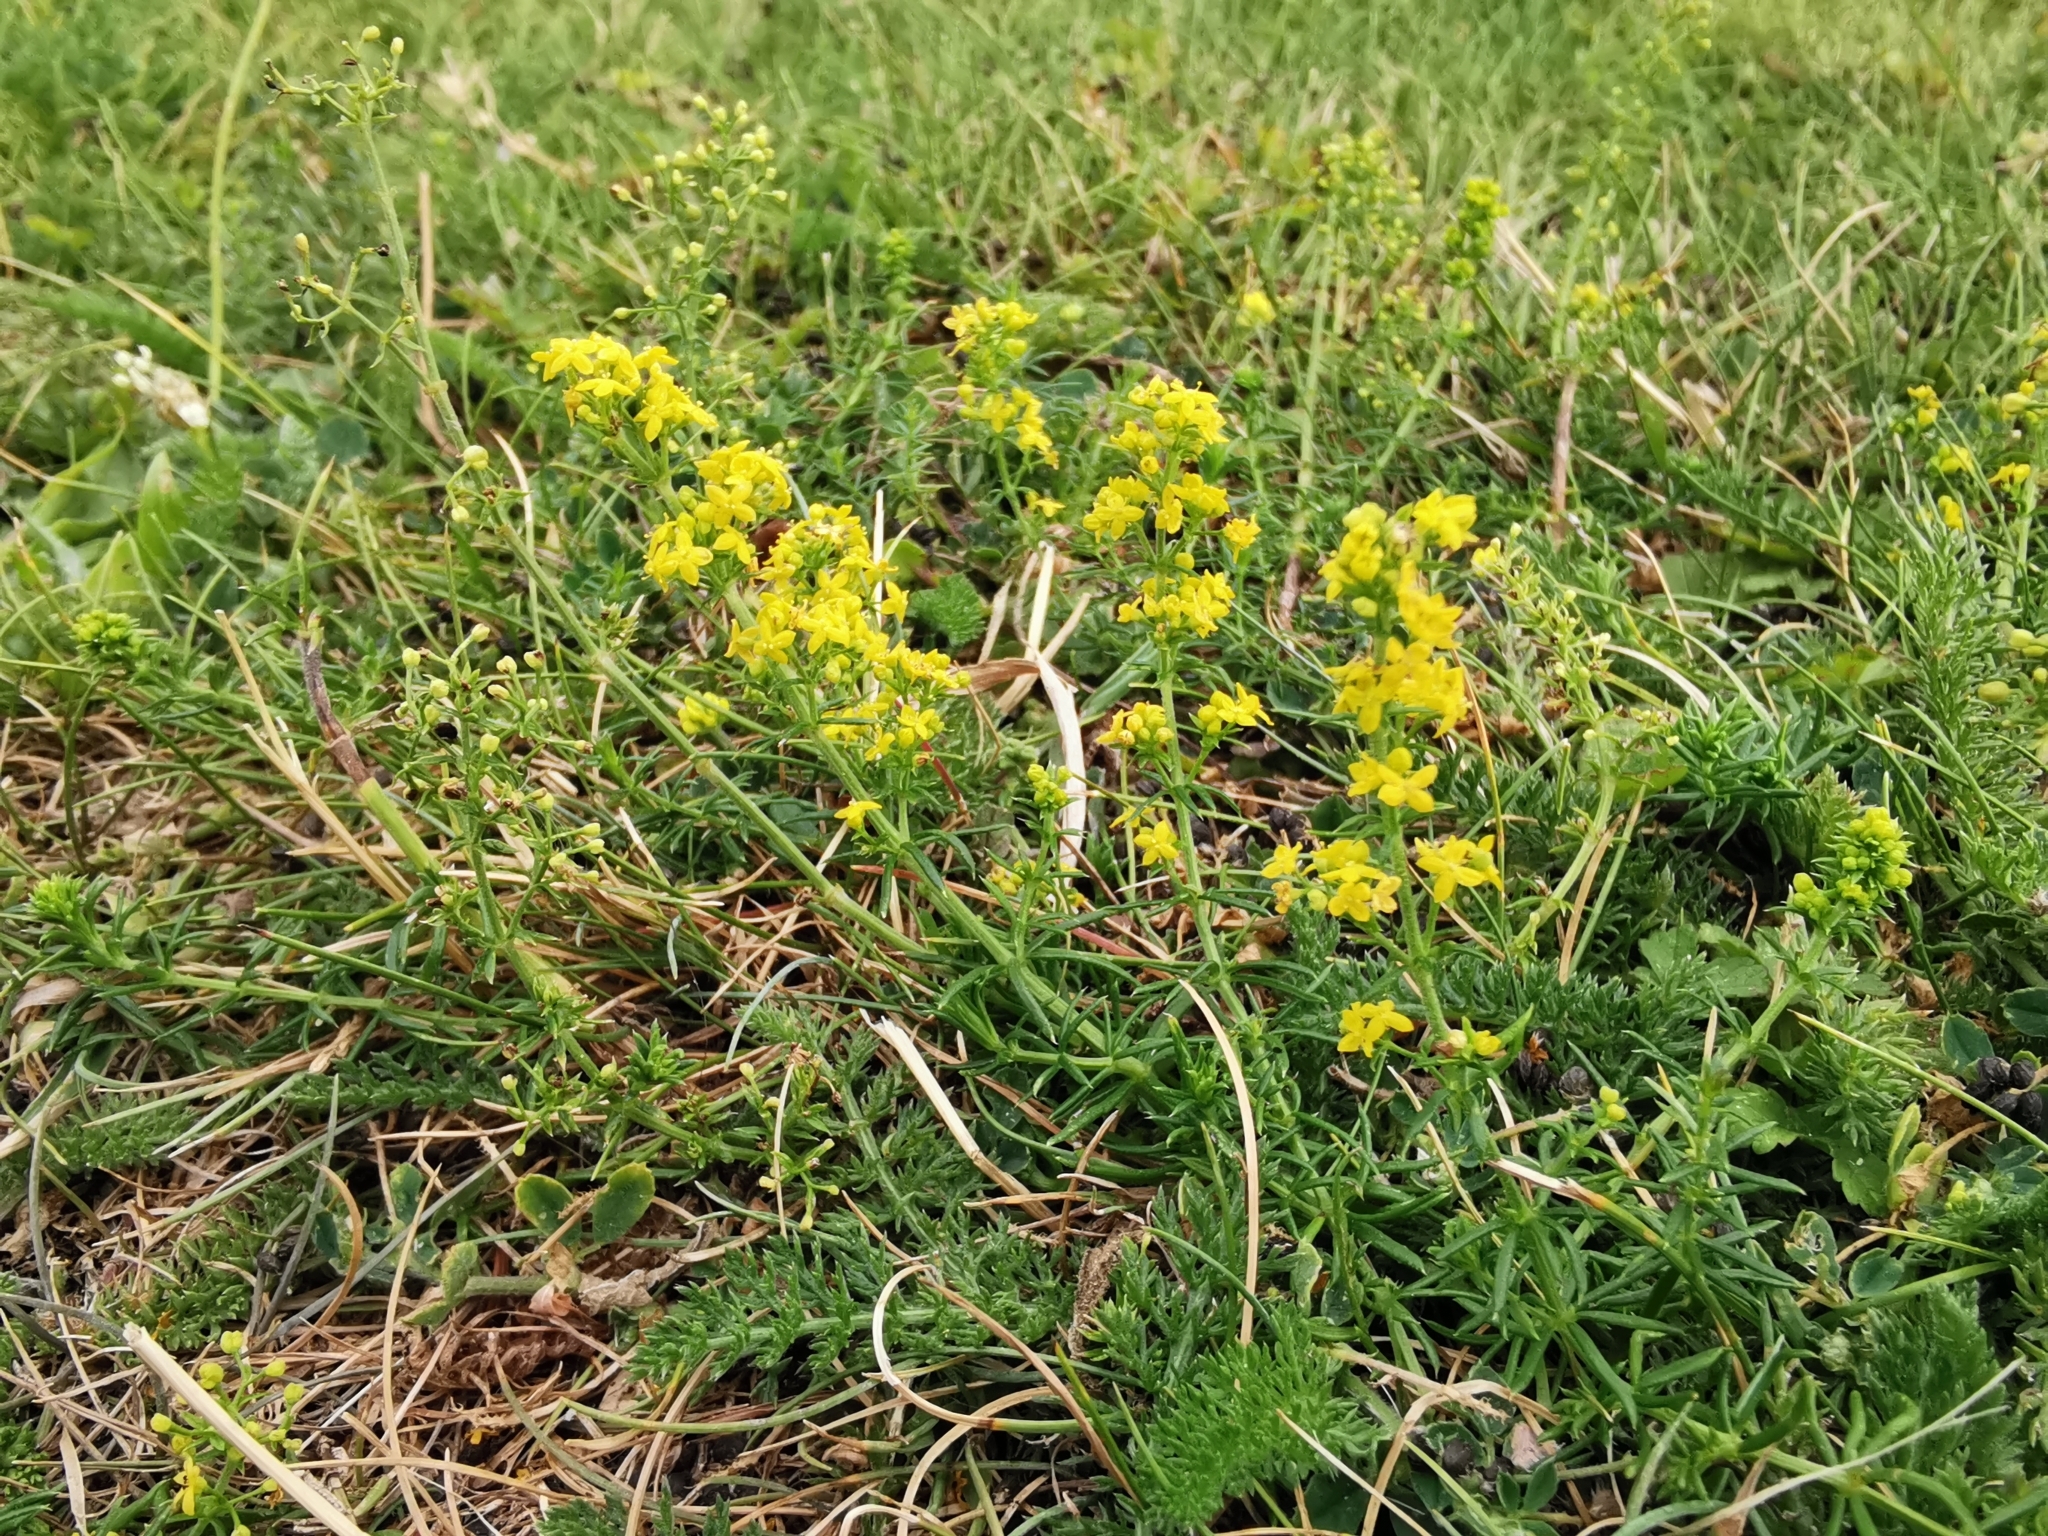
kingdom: Plantae
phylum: Tracheophyta
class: Magnoliopsida
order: Gentianales
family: Rubiaceae
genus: Galium
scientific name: Galium verum
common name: Lady's bedstraw
